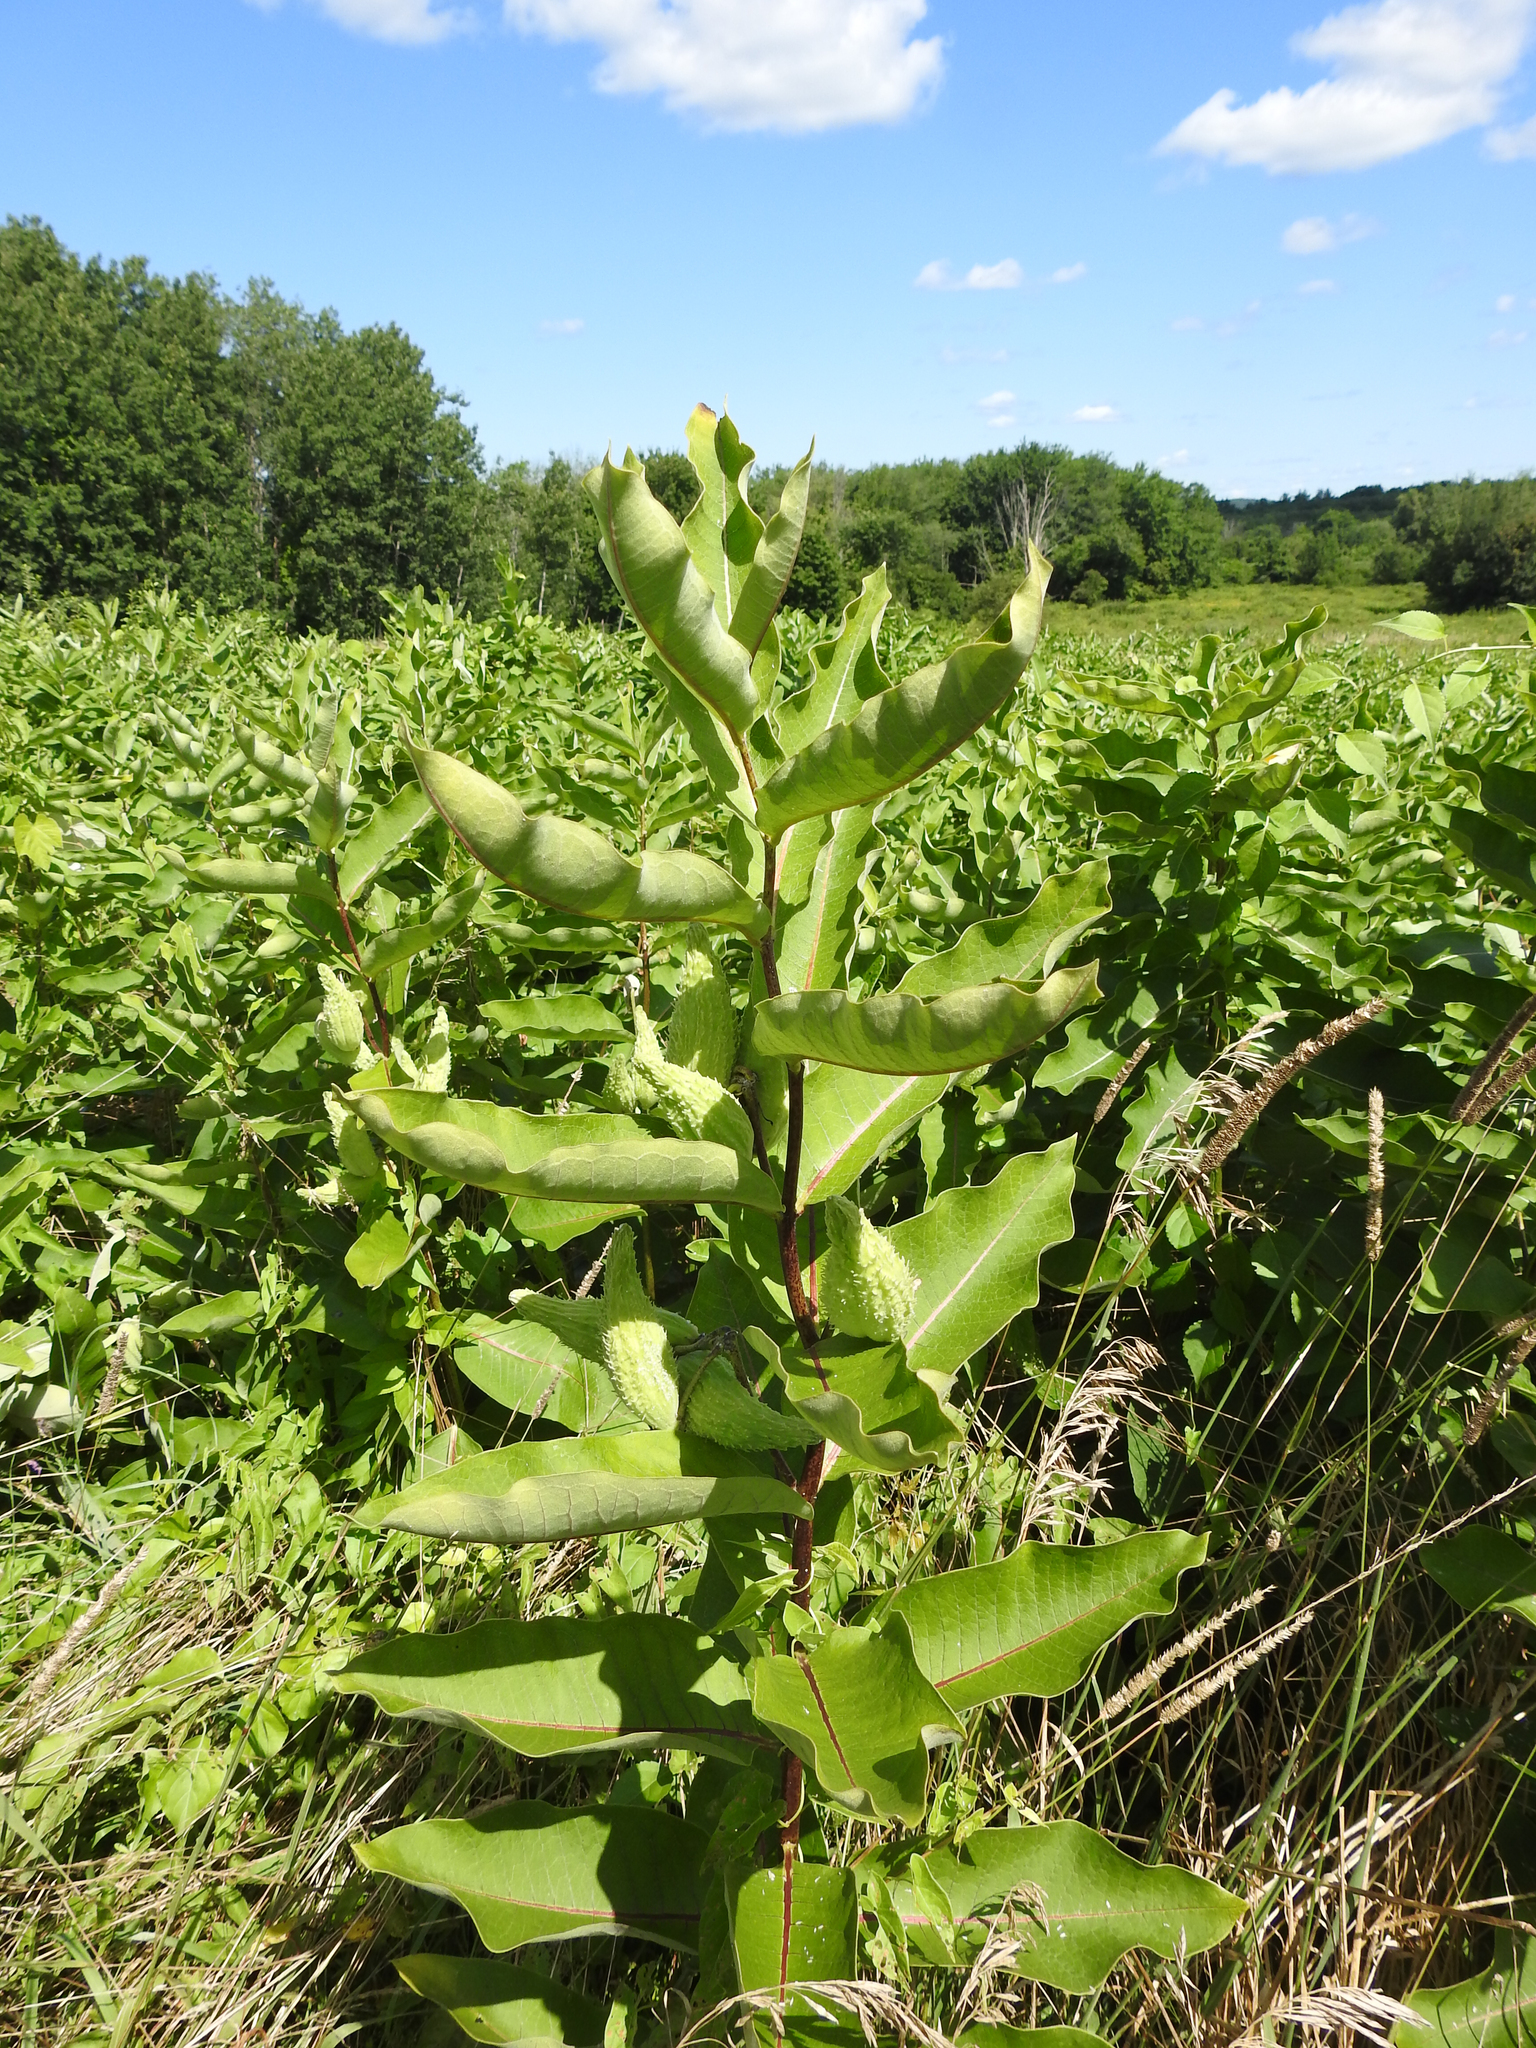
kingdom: Plantae
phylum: Tracheophyta
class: Magnoliopsida
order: Gentianales
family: Apocynaceae
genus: Asclepias
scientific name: Asclepias syriaca
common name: Common milkweed
